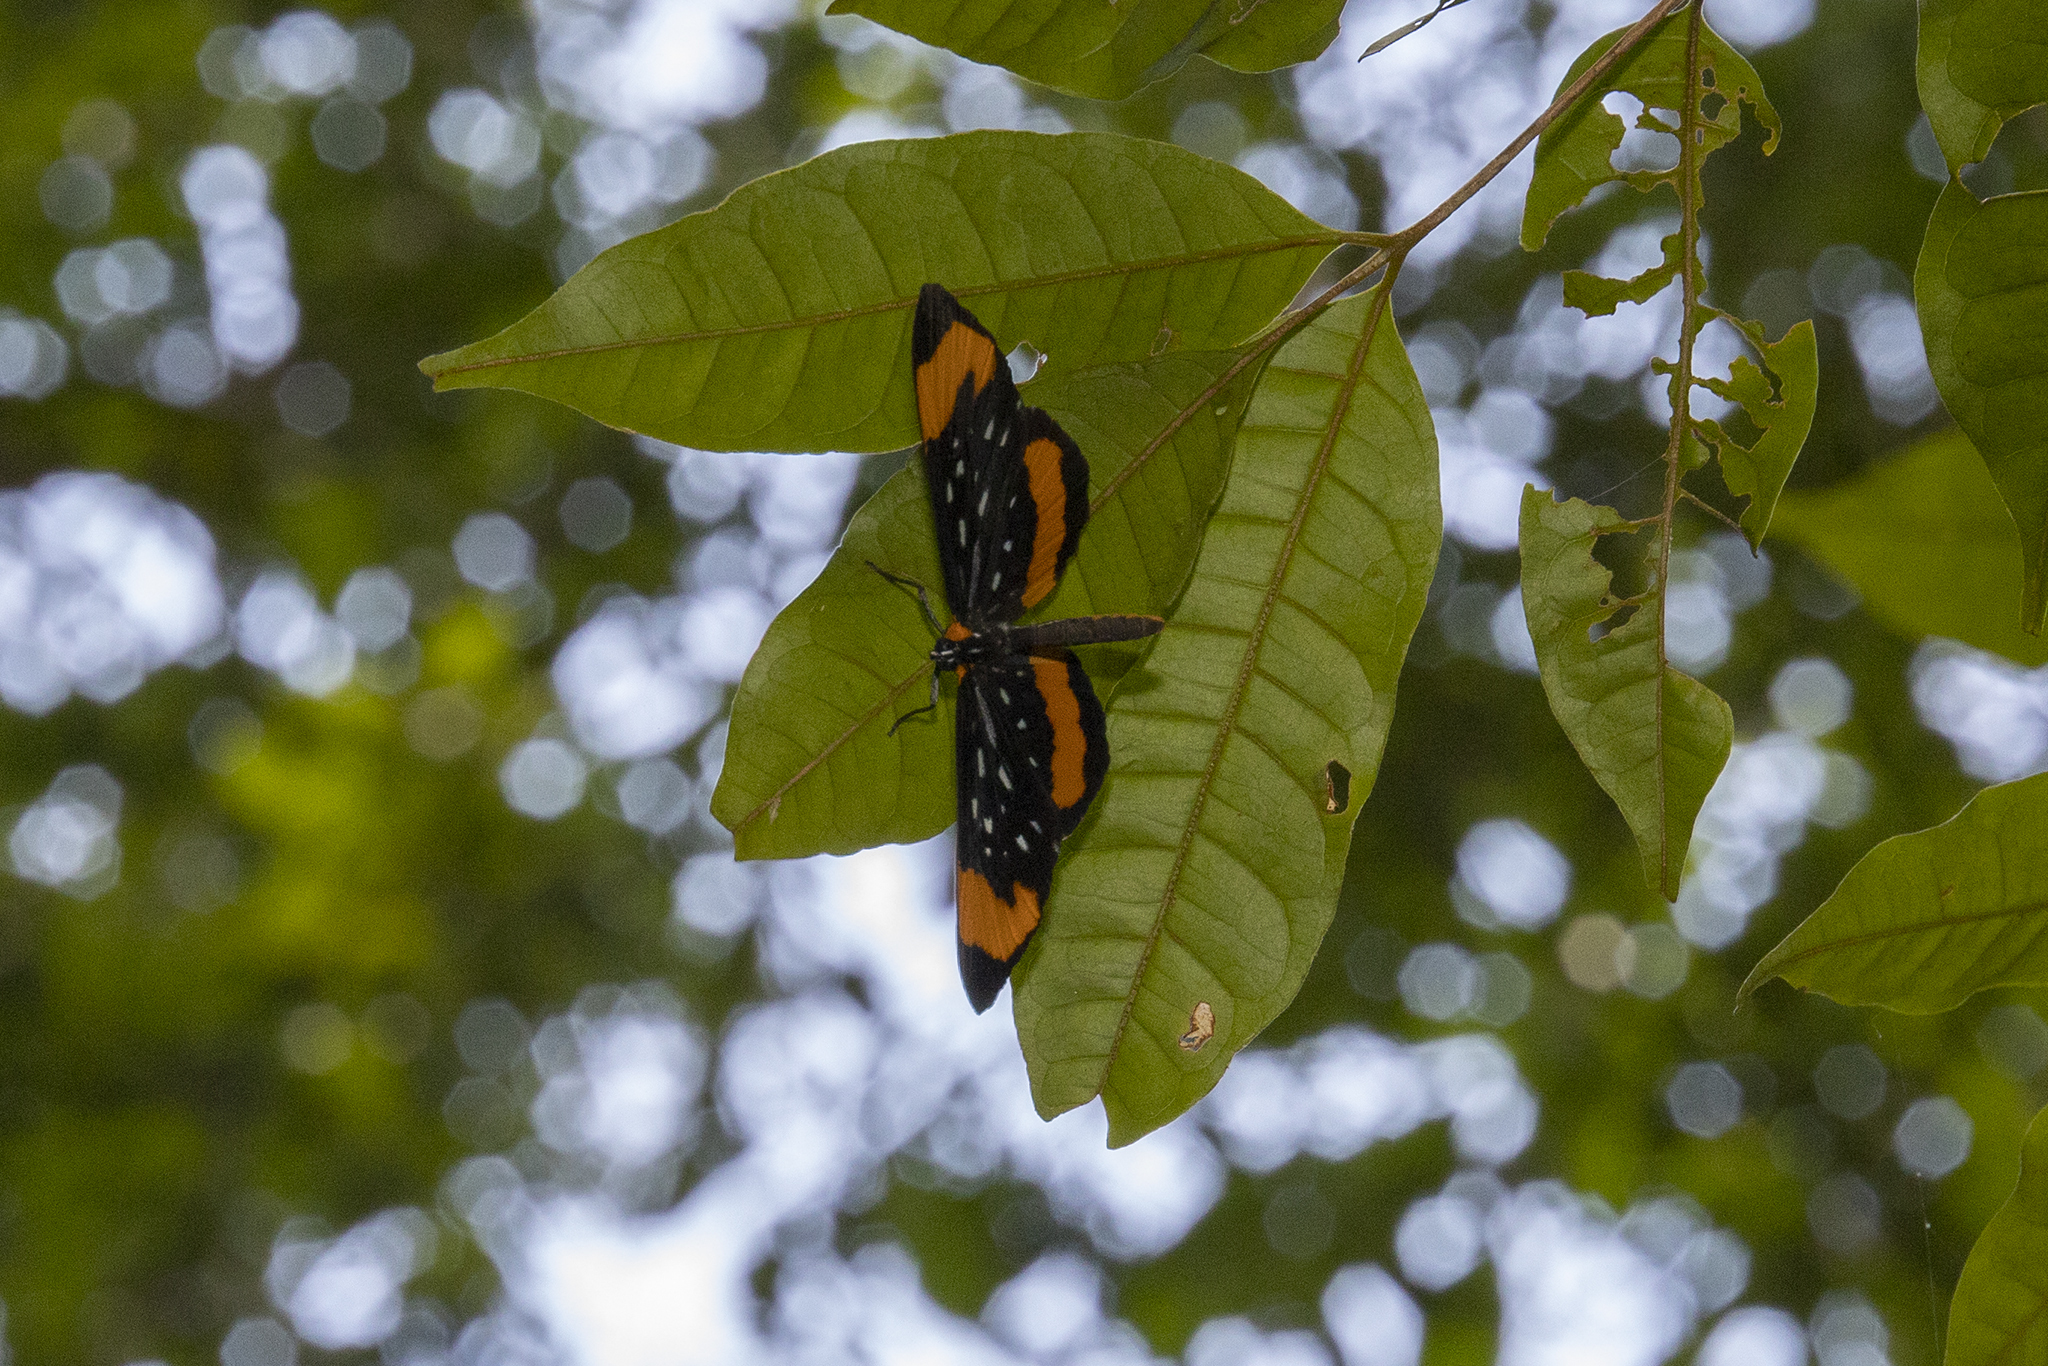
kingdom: Animalia
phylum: Arthropoda
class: Insecta
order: Lepidoptera
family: Riodinidae
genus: Stalachtis
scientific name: Stalachtis euterpe
